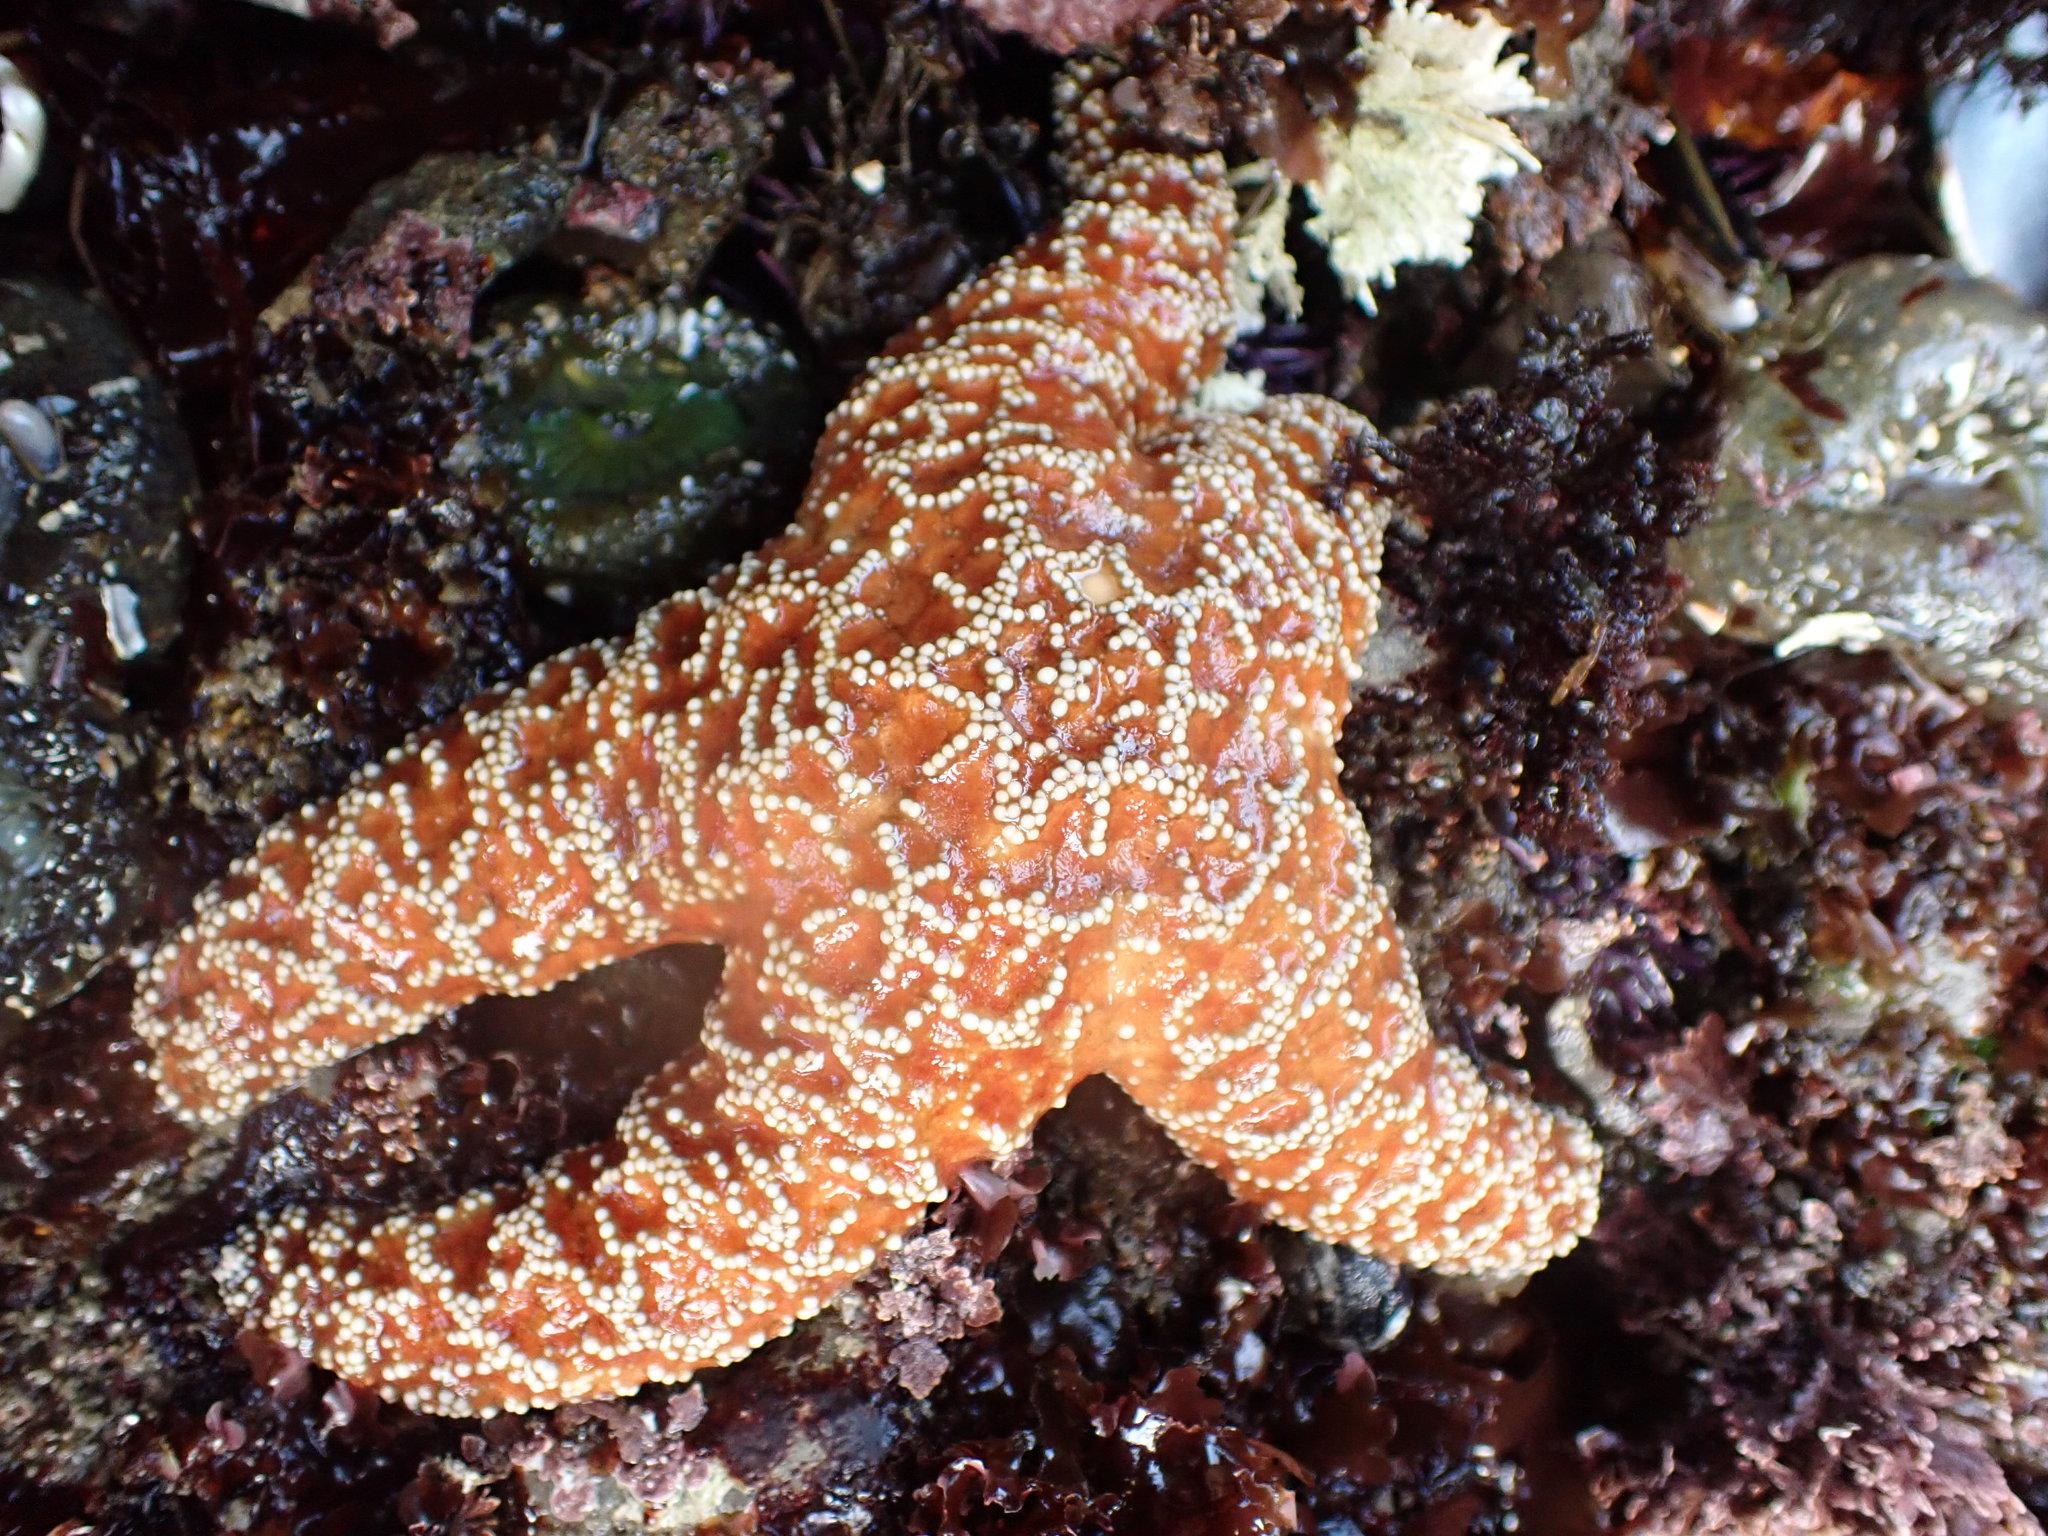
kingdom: Animalia
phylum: Echinodermata
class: Asteroidea
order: Forcipulatida
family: Asteriidae
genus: Pisaster
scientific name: Pisaster ochraceus
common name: Ochre stars
